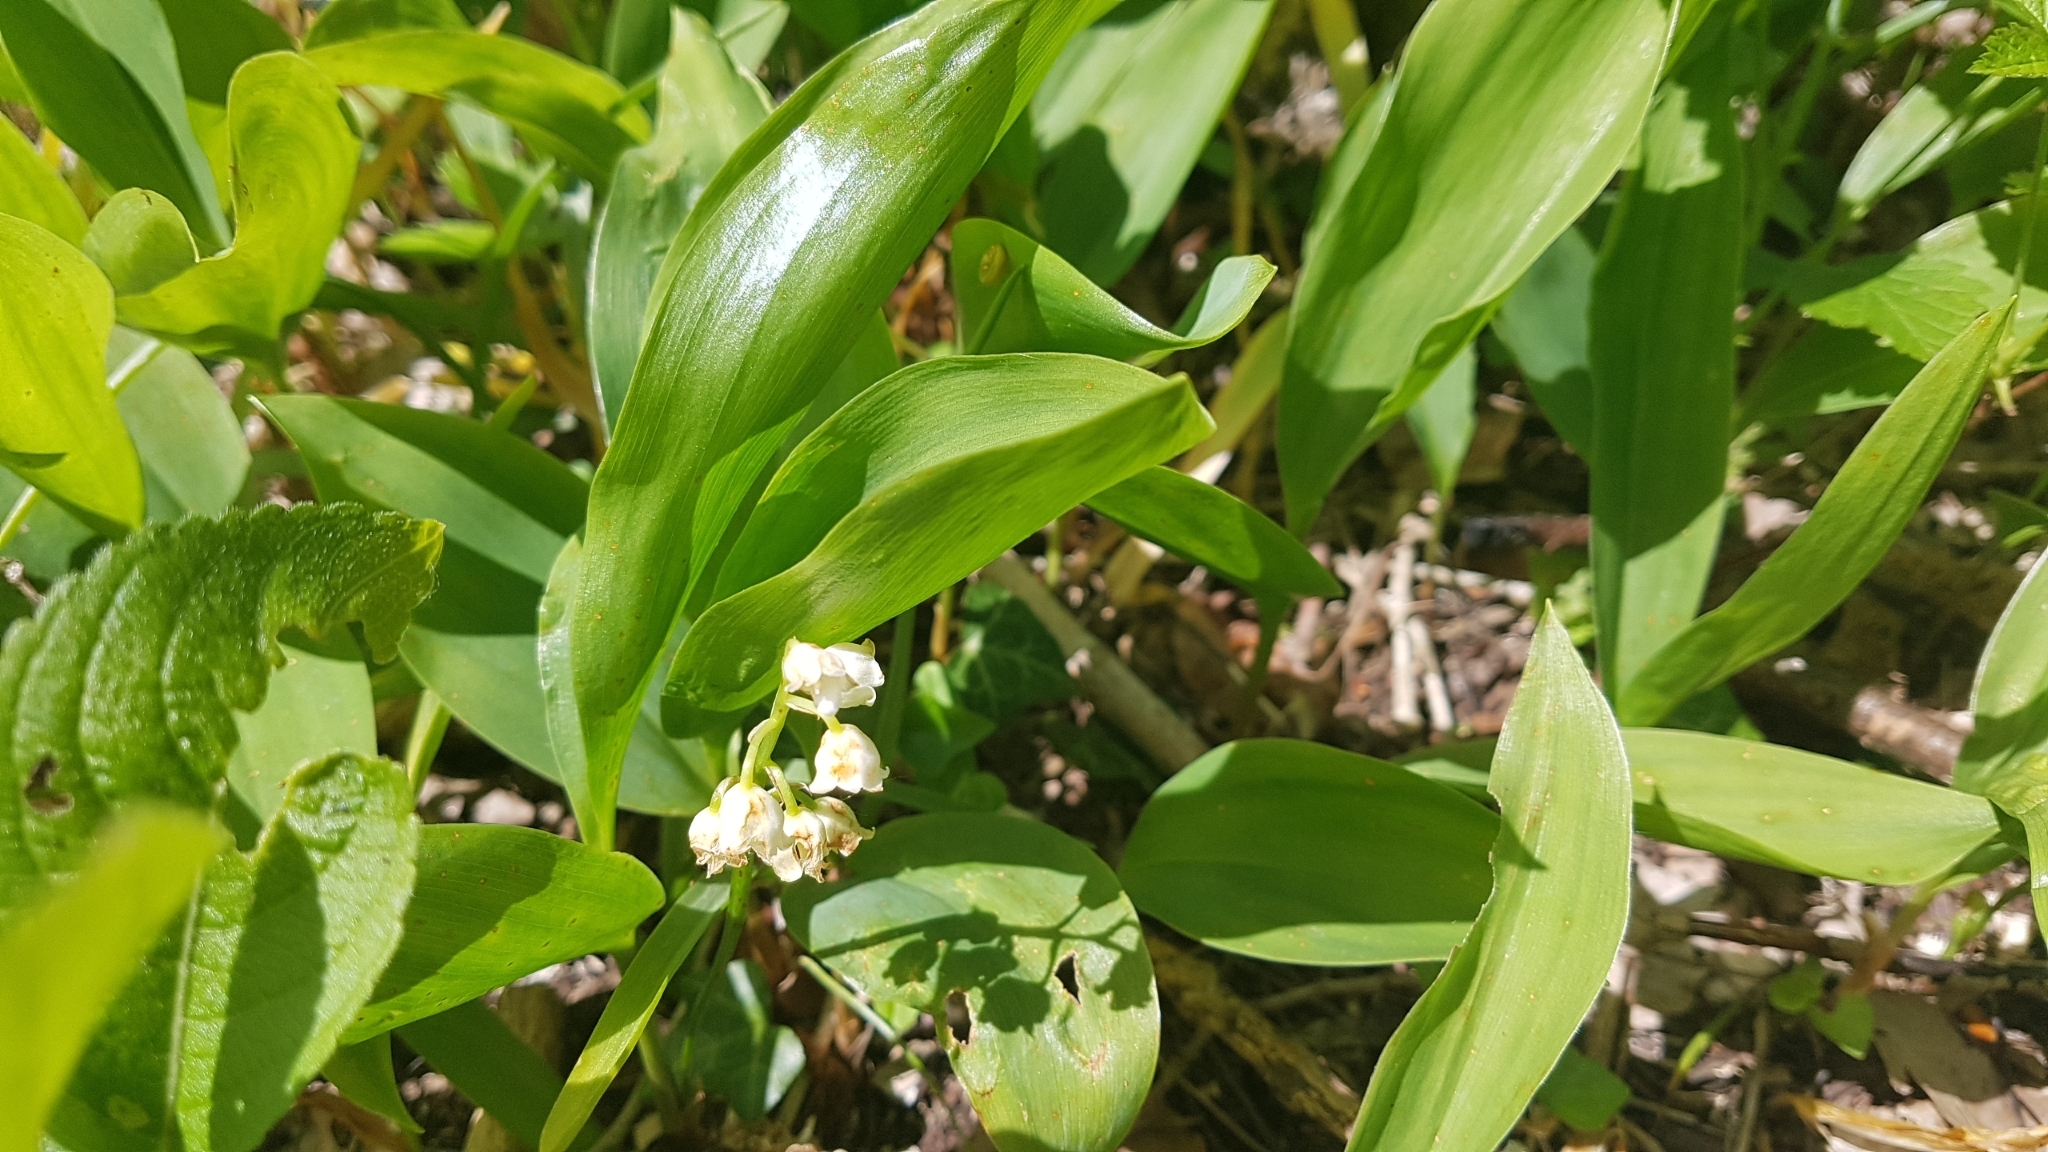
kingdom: Plantae
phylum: Tracheophyta
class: Liliopsida
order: Asparagales
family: Asparagaceae
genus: Convallaria
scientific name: Convallaria majalis
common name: Lily-of-the-valley
